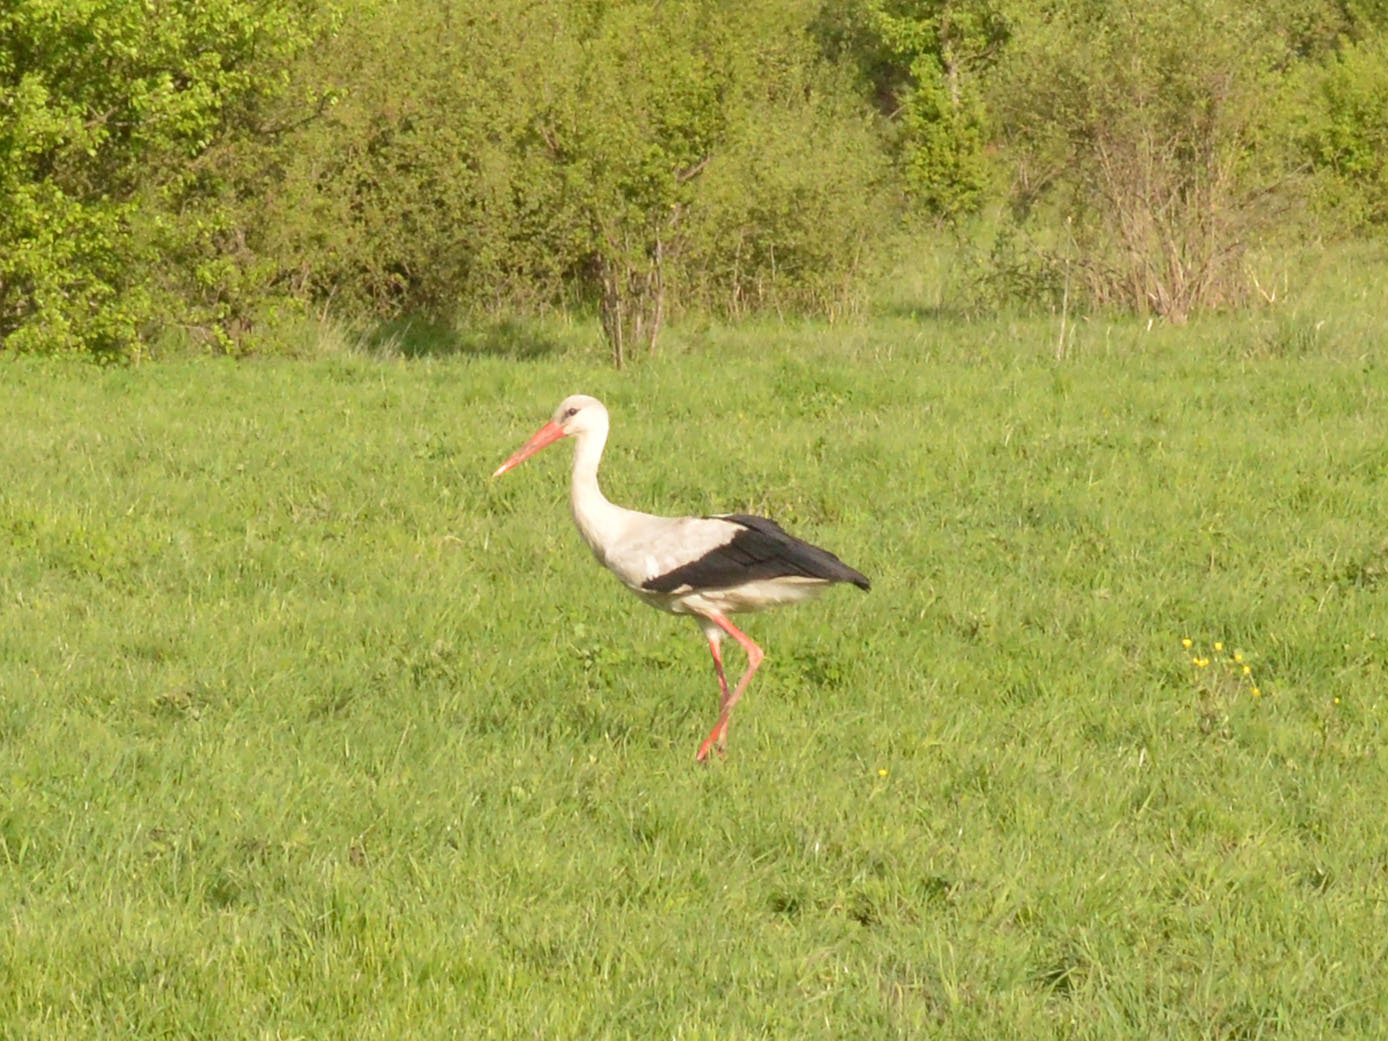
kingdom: Animalia
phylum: Chordata
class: Aves
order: Ciconiiformes
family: Ciconiidae
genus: Ciconia
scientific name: Ciconia ciconia
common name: White stork
